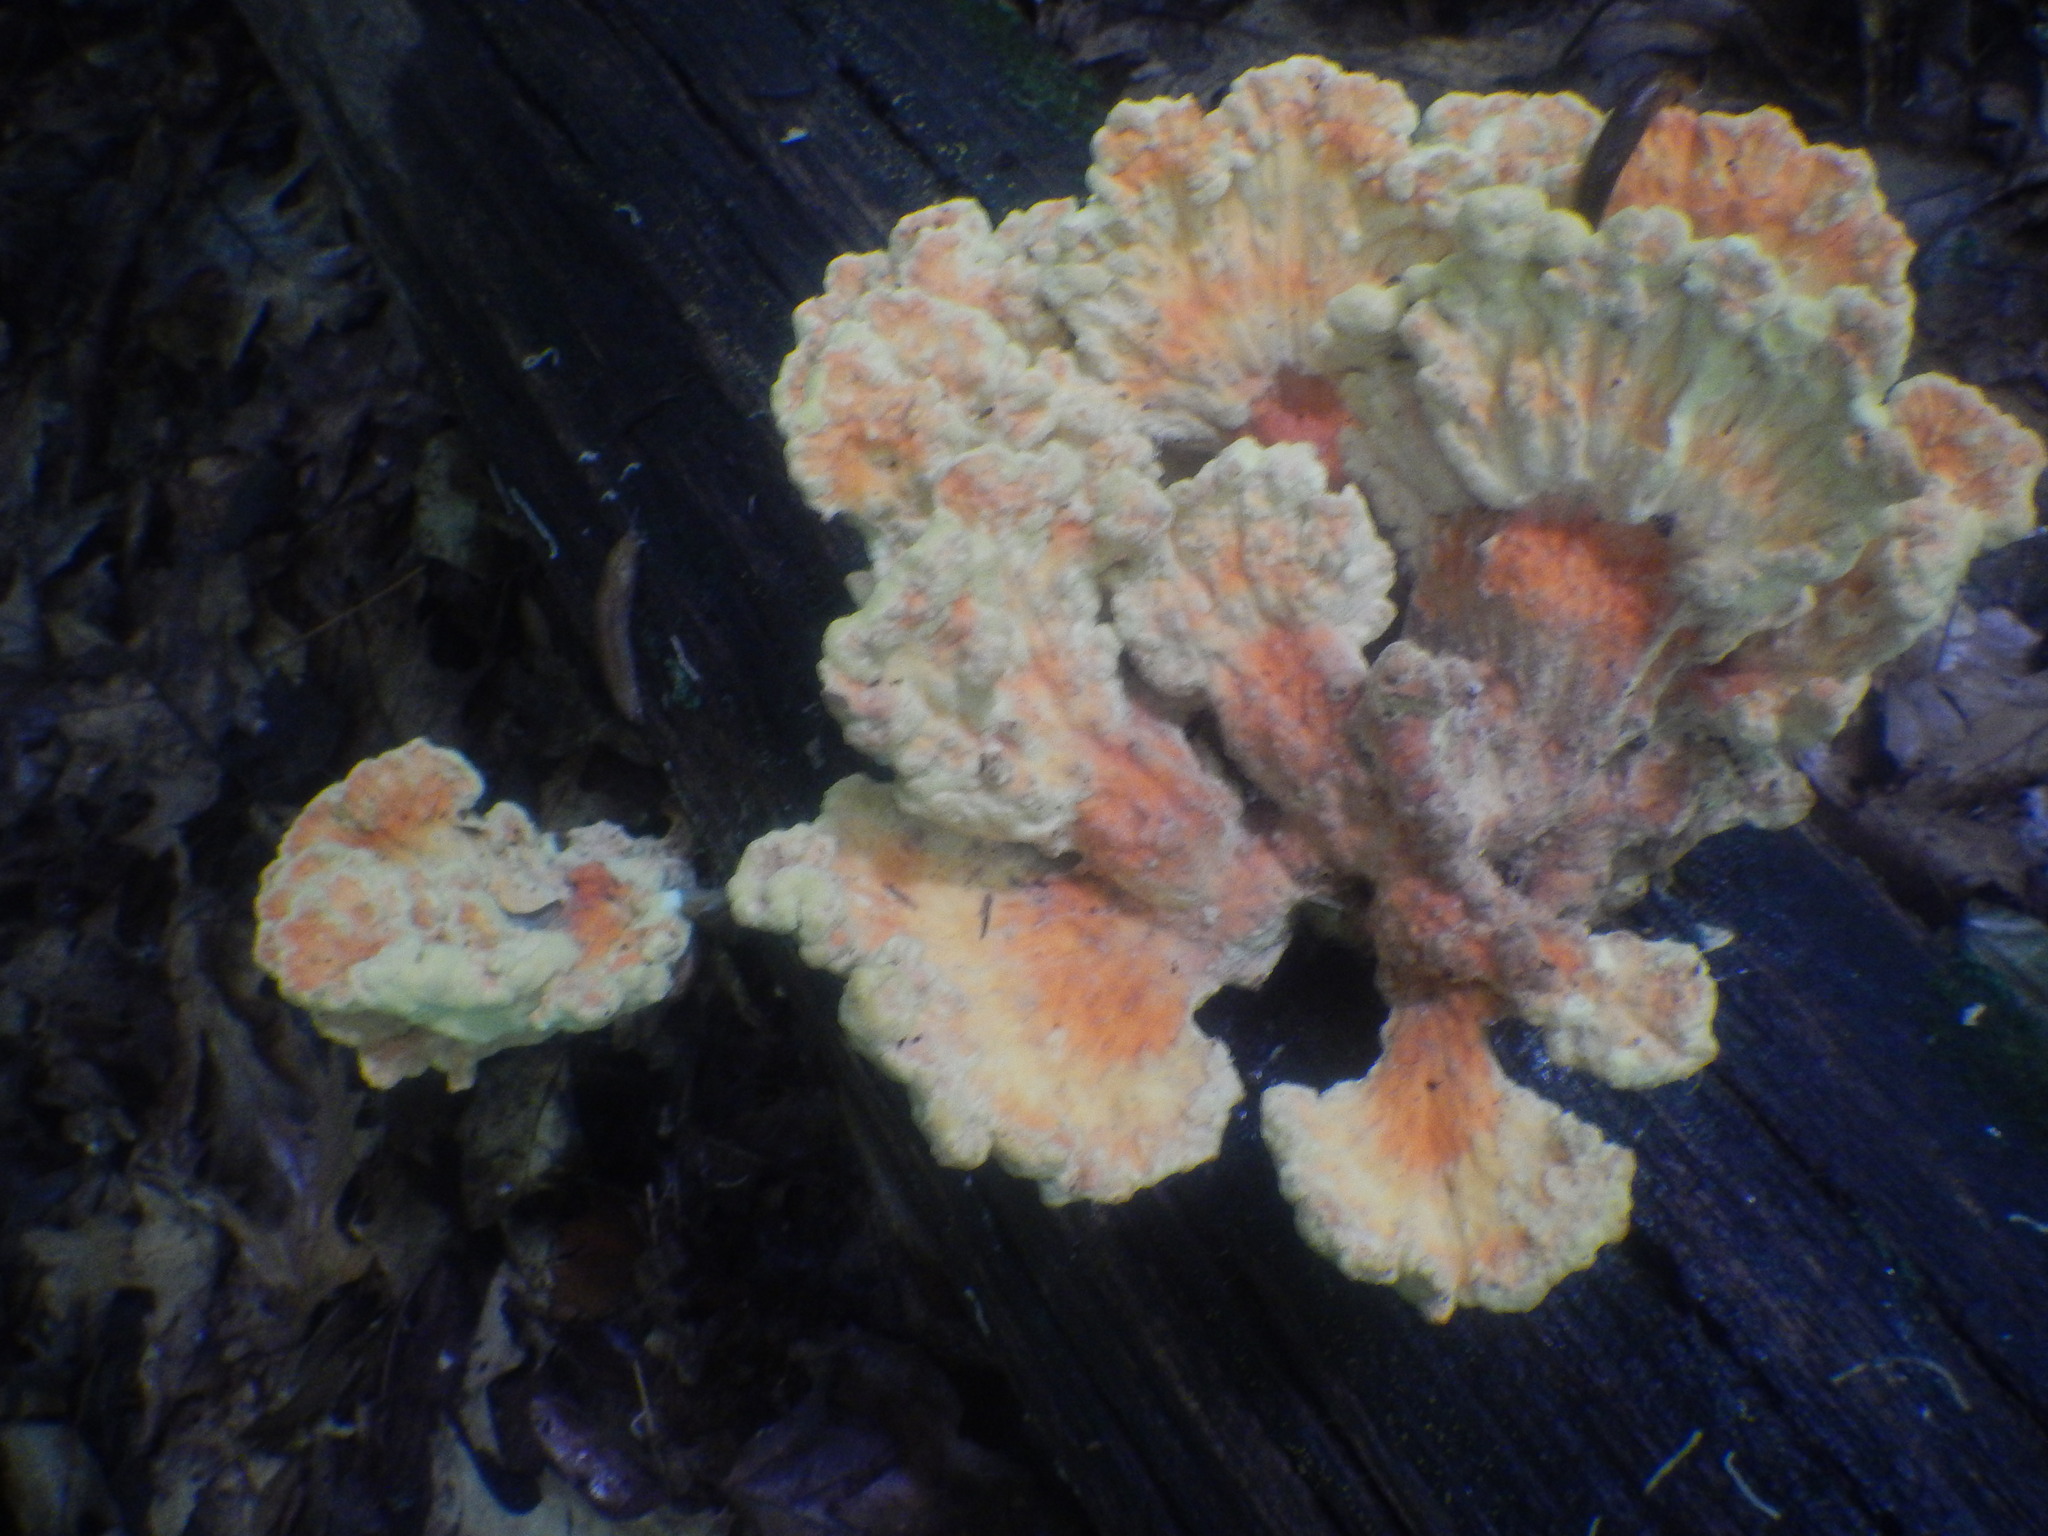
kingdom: Fungi
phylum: Basidiomycota
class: Agaricomycetes
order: Polyporales
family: Laetiporaceae
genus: Laetiporus
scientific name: Laetiporus sulphureus
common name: Chicken of the woods
